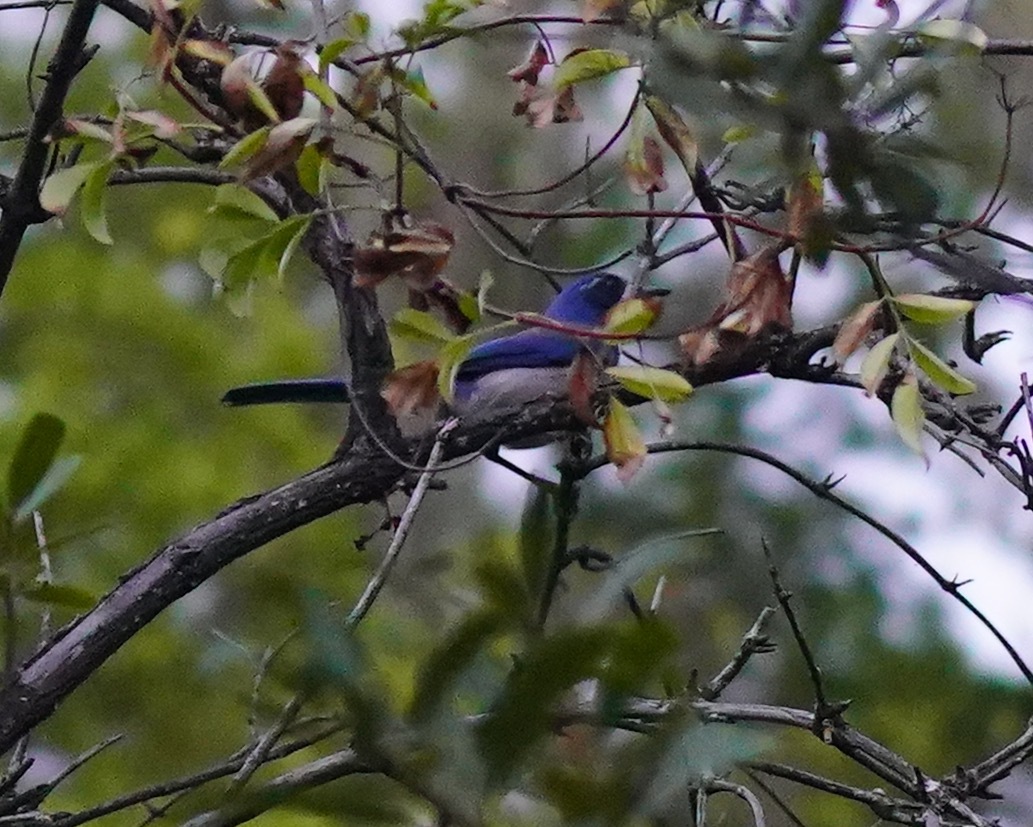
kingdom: Animalia
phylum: Chordata
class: Aves
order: Passeriformes
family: Corvidae
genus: Aphelocoma
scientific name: Aphelocoma californica
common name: California scrub-jay
